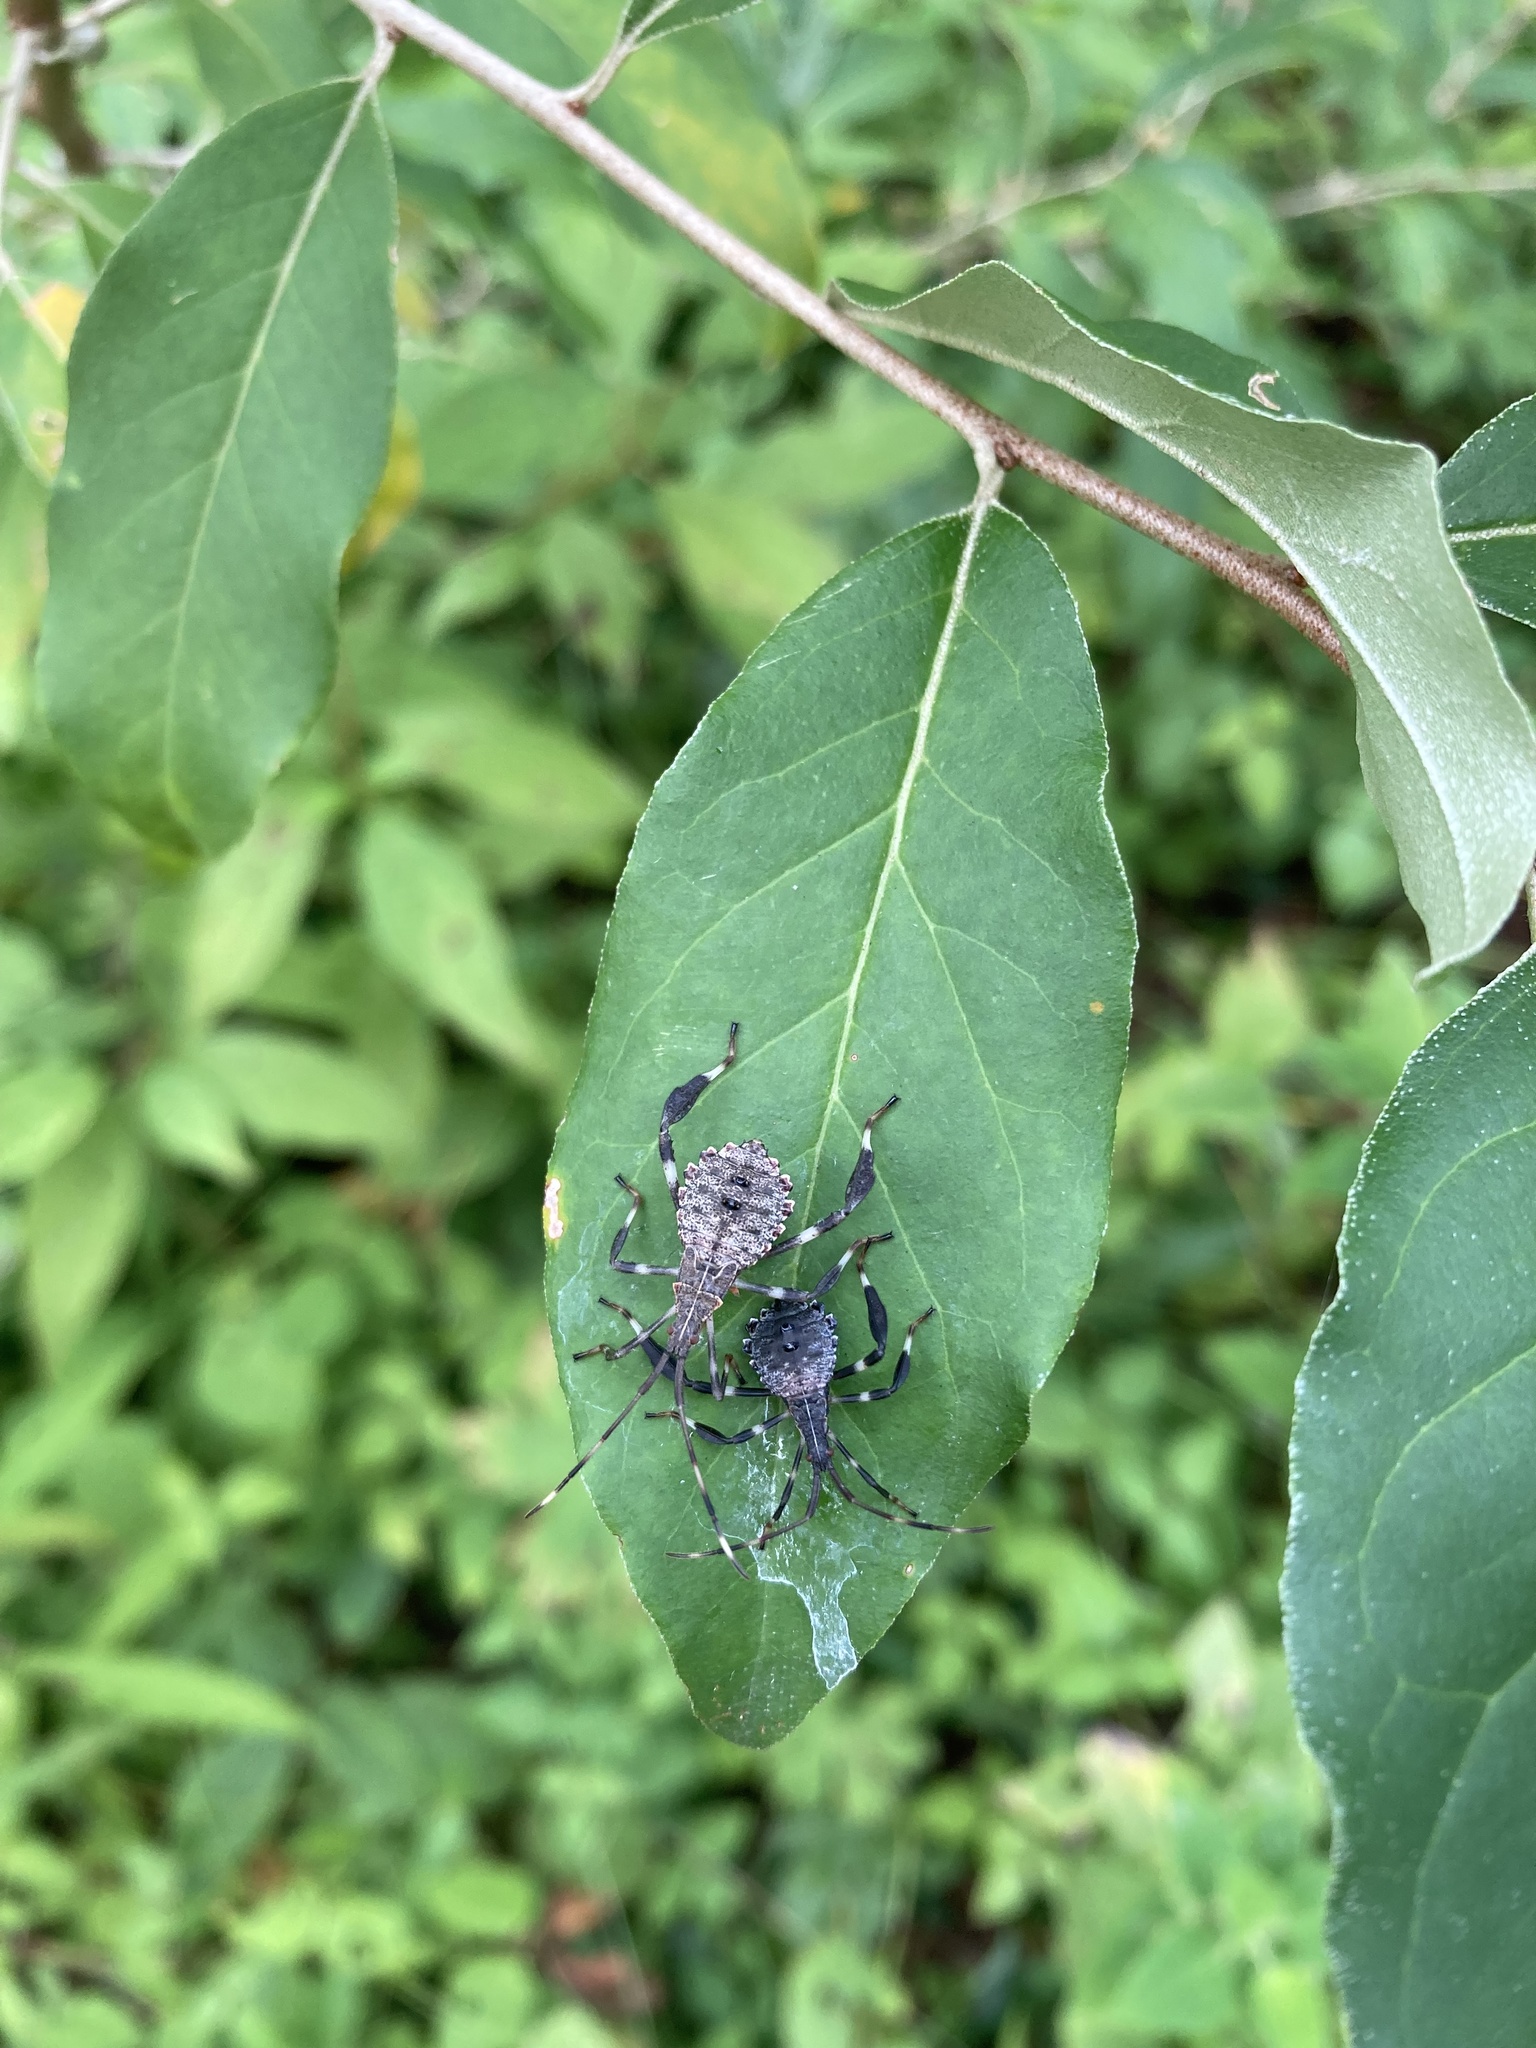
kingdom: Animalia
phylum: Arthropoda
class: Insecta
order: Hemiptera
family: Coreidae
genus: Acanthocephala
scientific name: Acanthocephala terminalis
